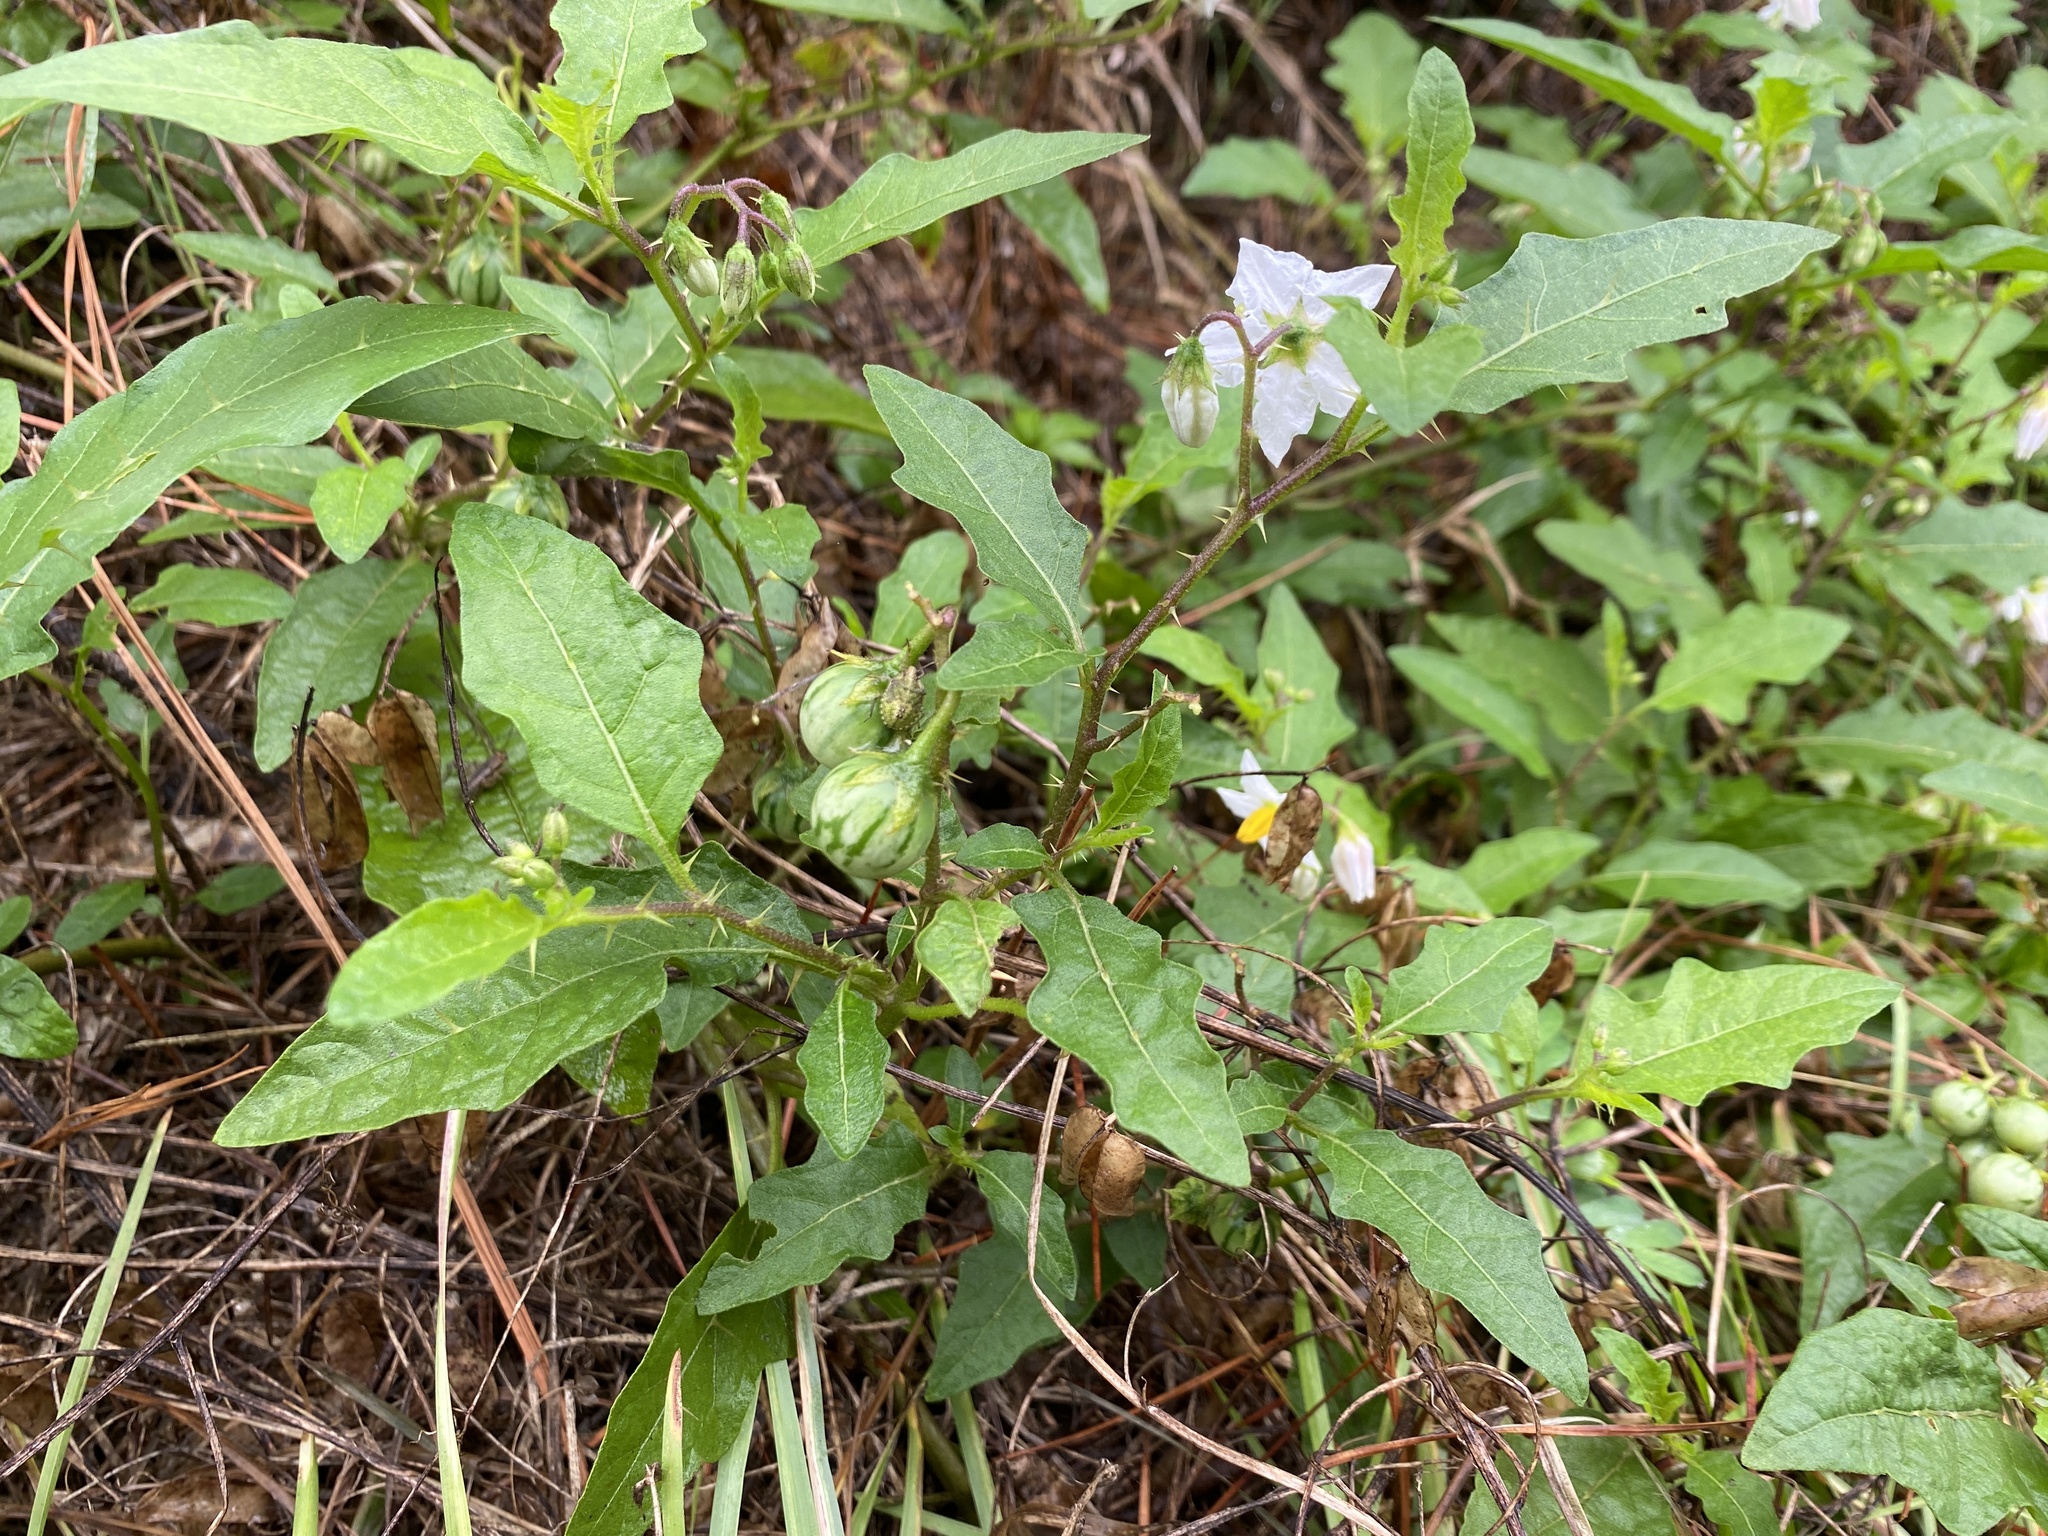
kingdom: Plantae
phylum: Tracheophyta
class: Magnoliopsida
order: Solanales
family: Solanaceae
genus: Solanum
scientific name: Solanum carolinense
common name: Horse-nettle
